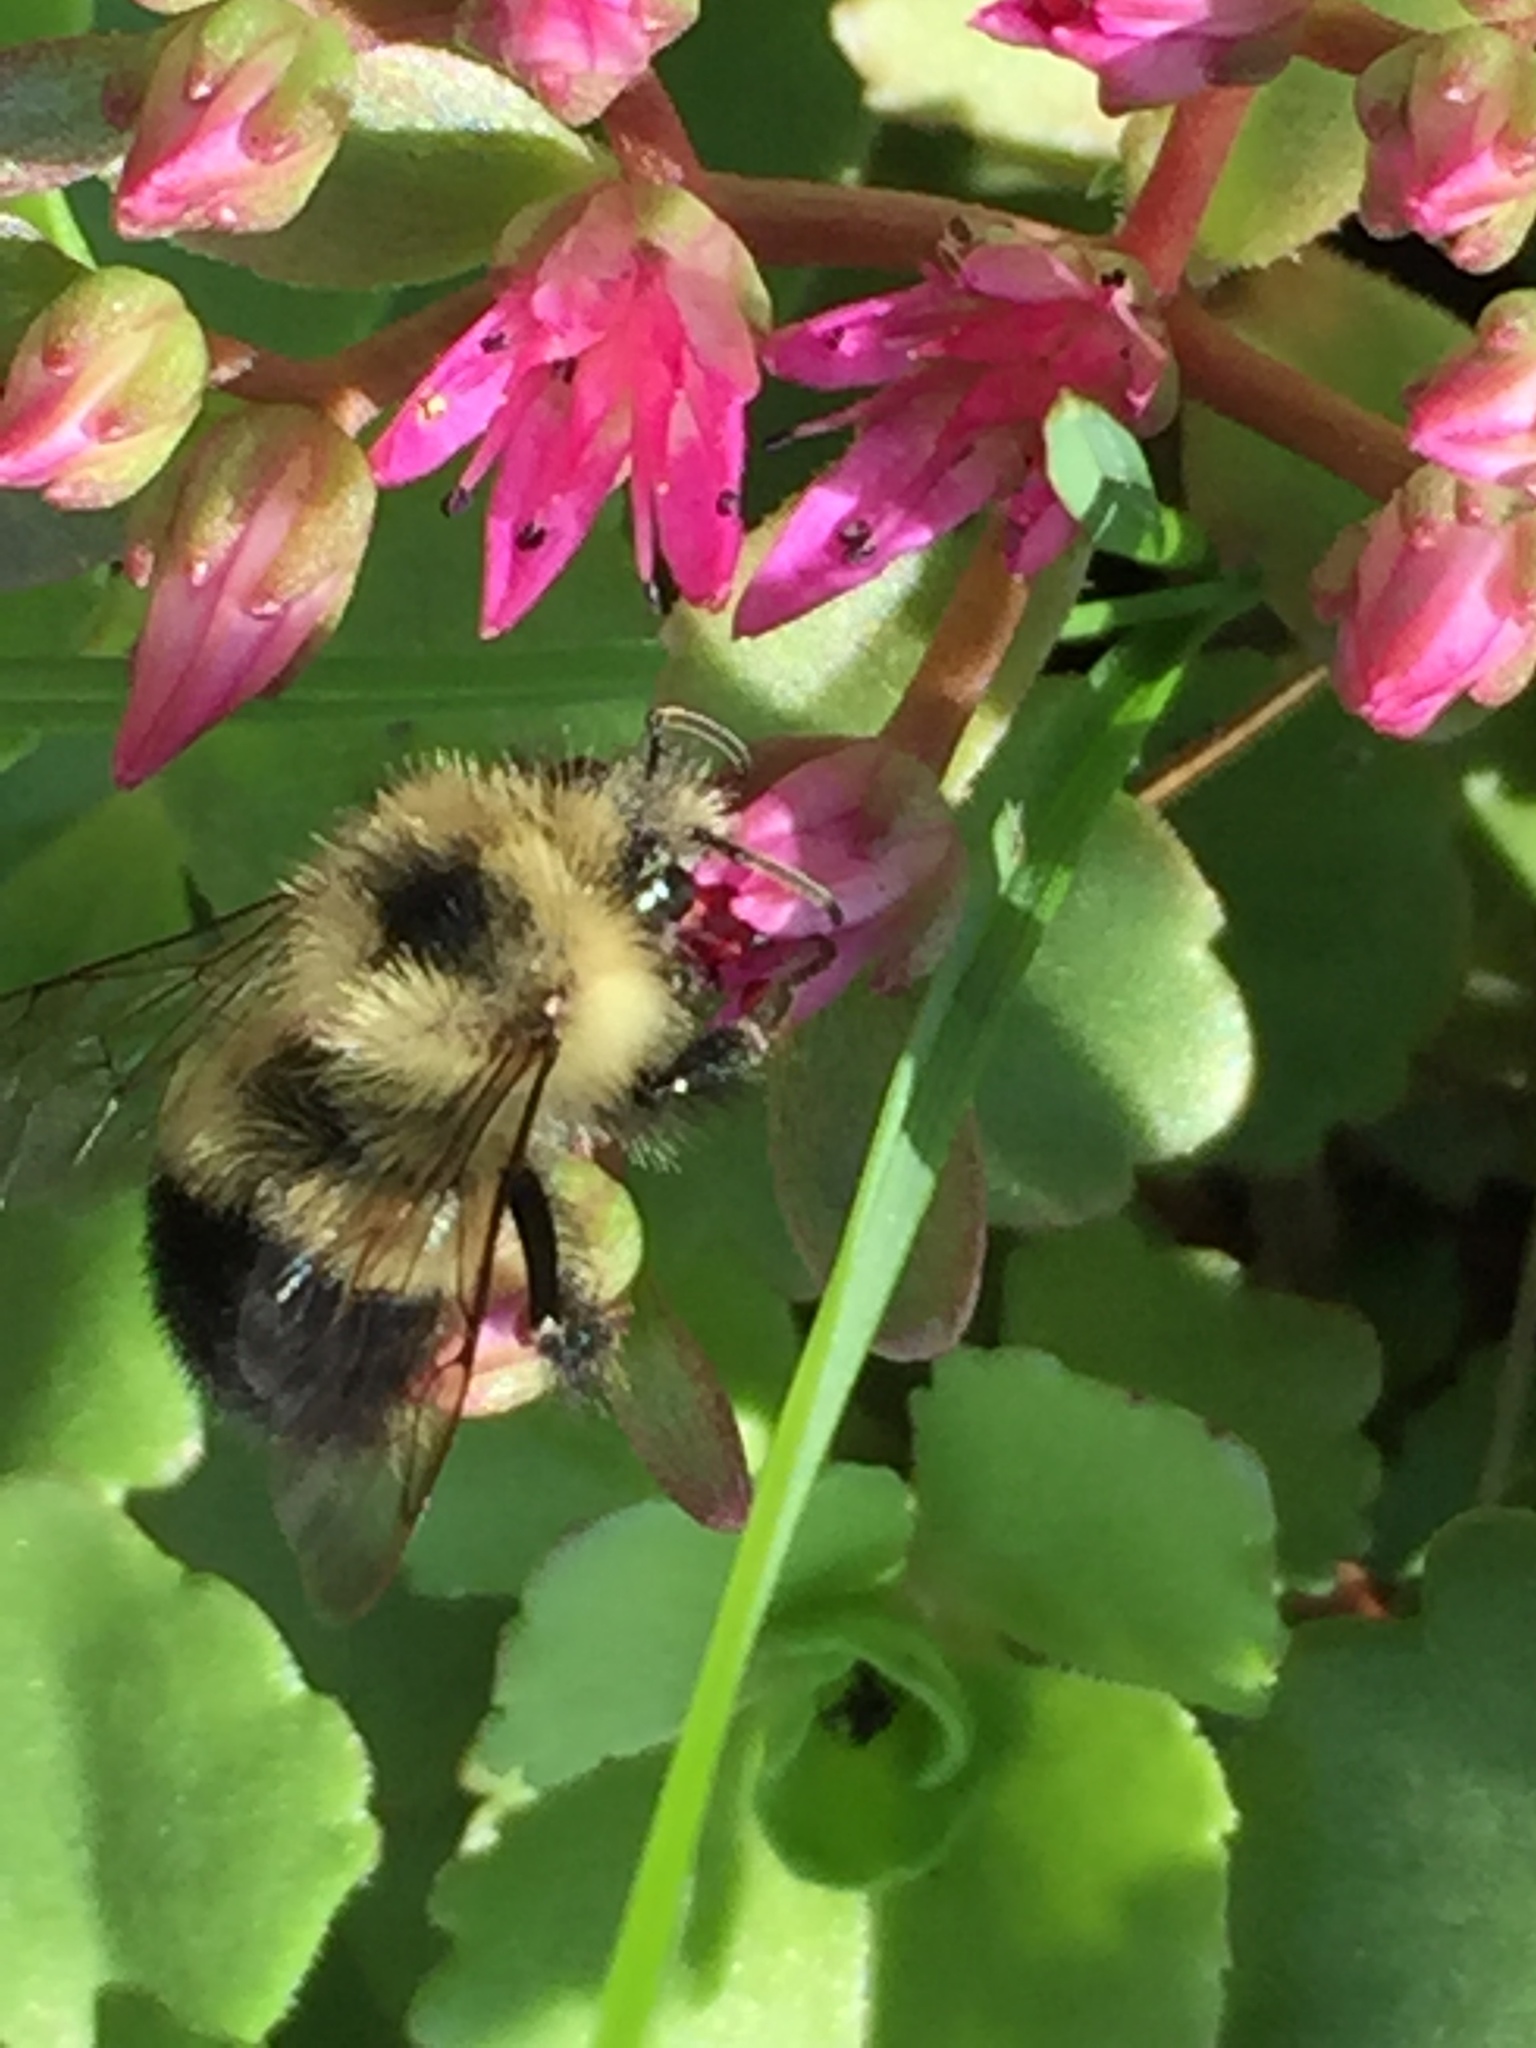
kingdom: Animalia
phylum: Arthropoda
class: Insecta
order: Hymenoptera
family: Apidae
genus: Pyrobombus
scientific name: Pyrobombus
